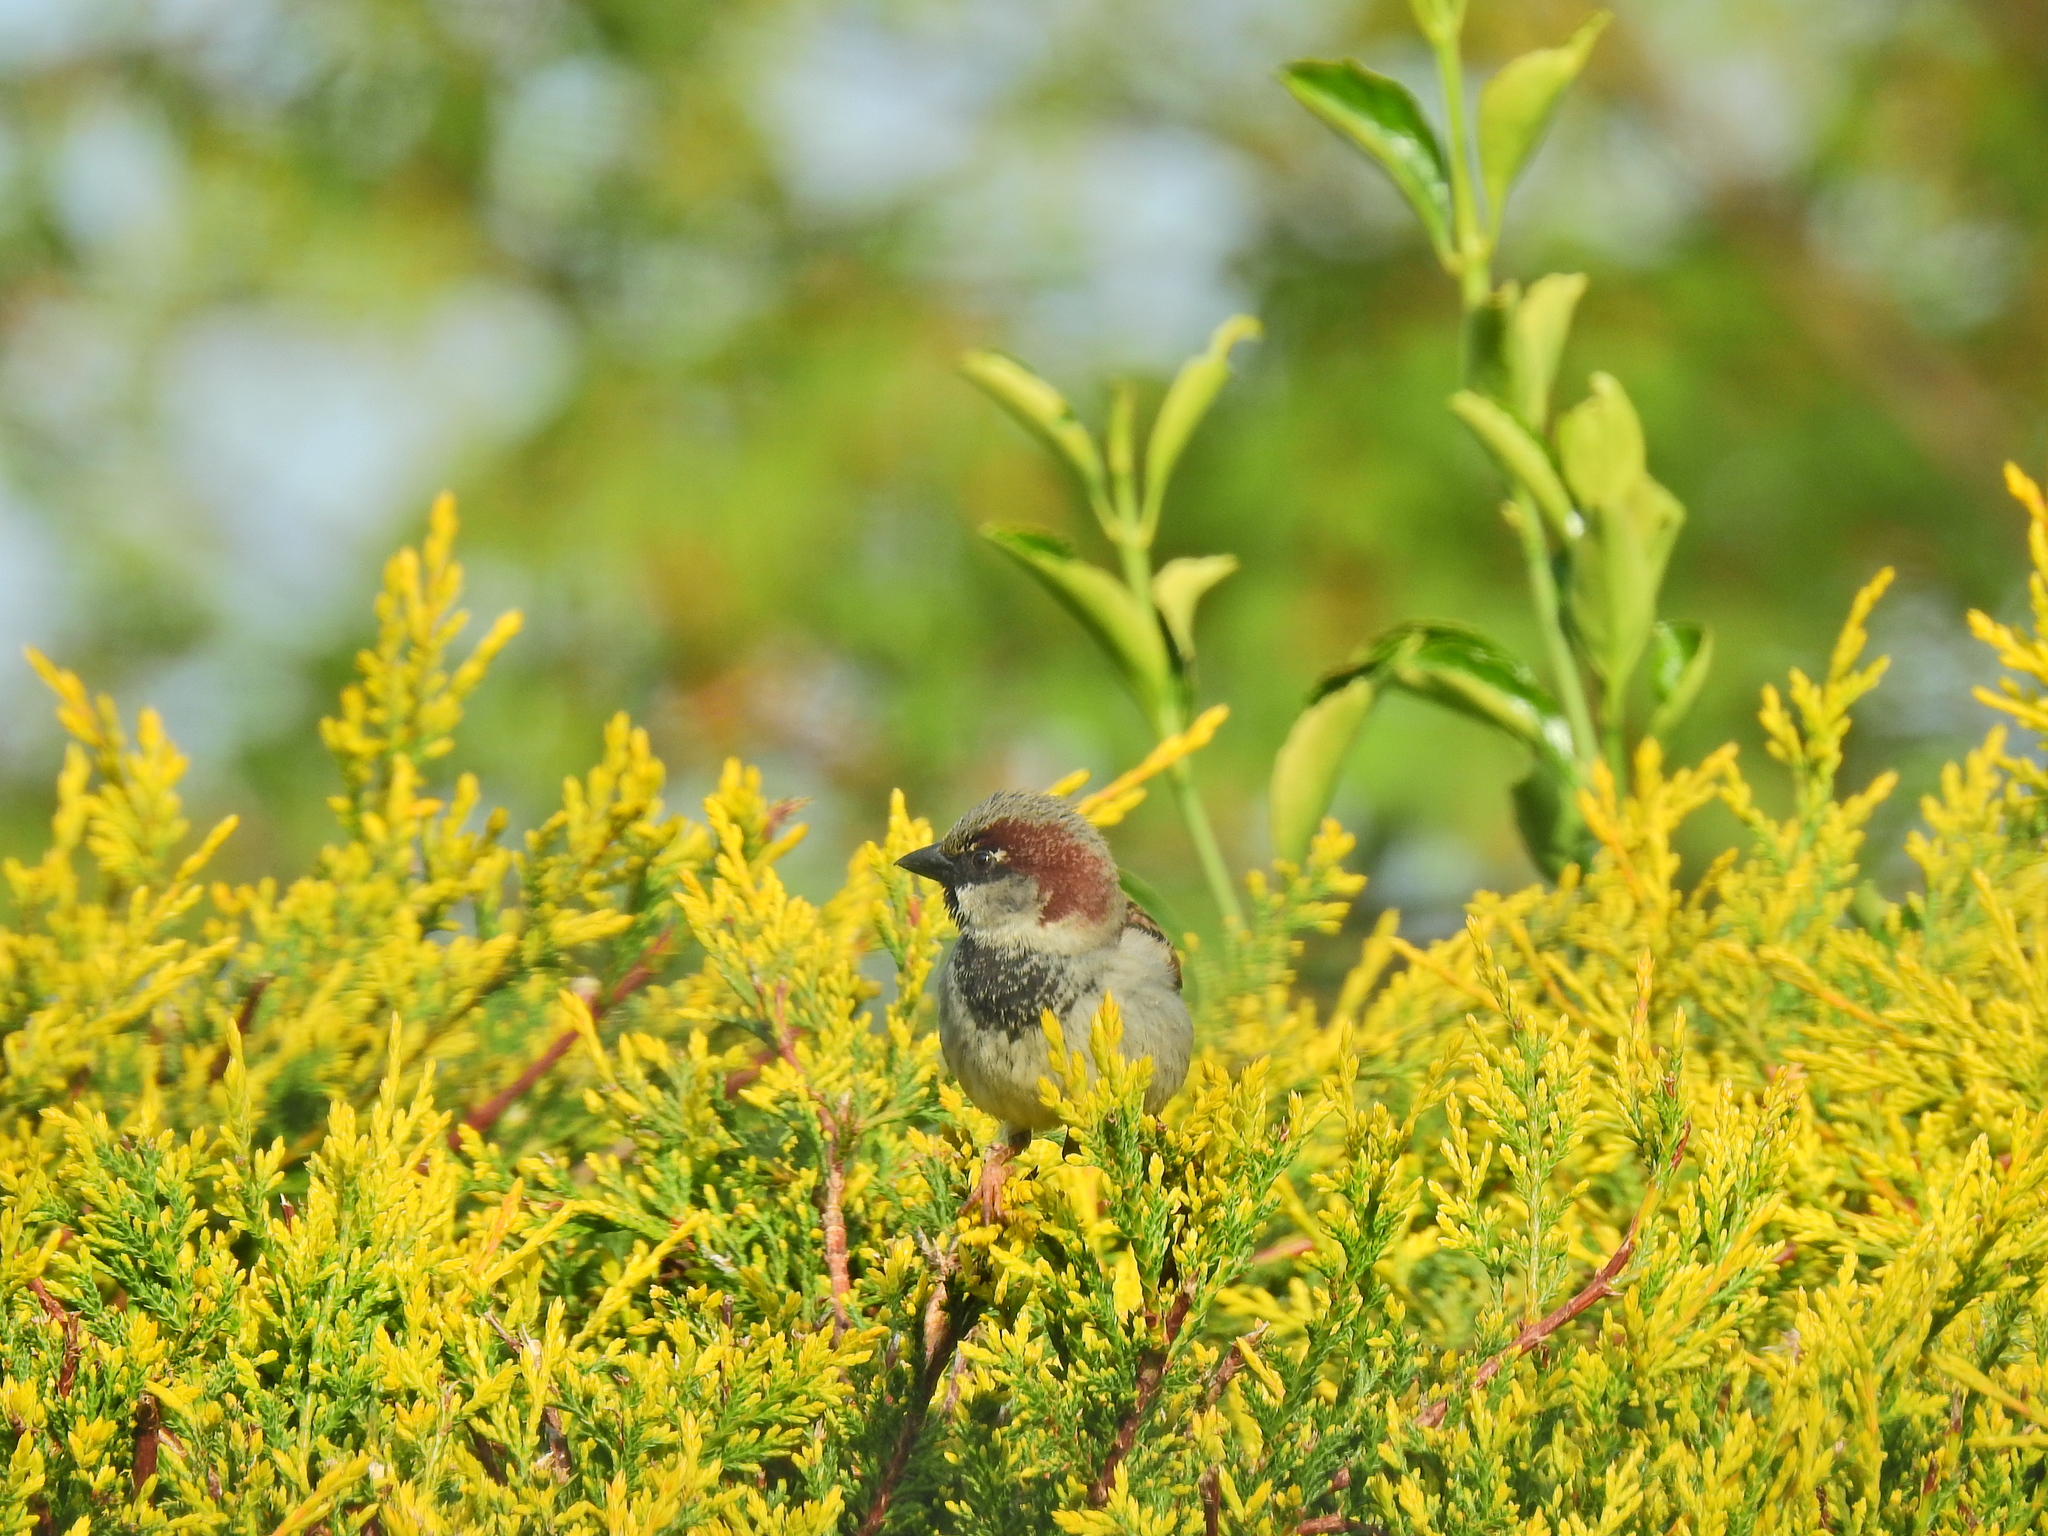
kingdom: Animalia
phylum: Chordata
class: Aves
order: Passeriformes
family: Passeridae
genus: Passer
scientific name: Passer domesticus
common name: House sparrow
